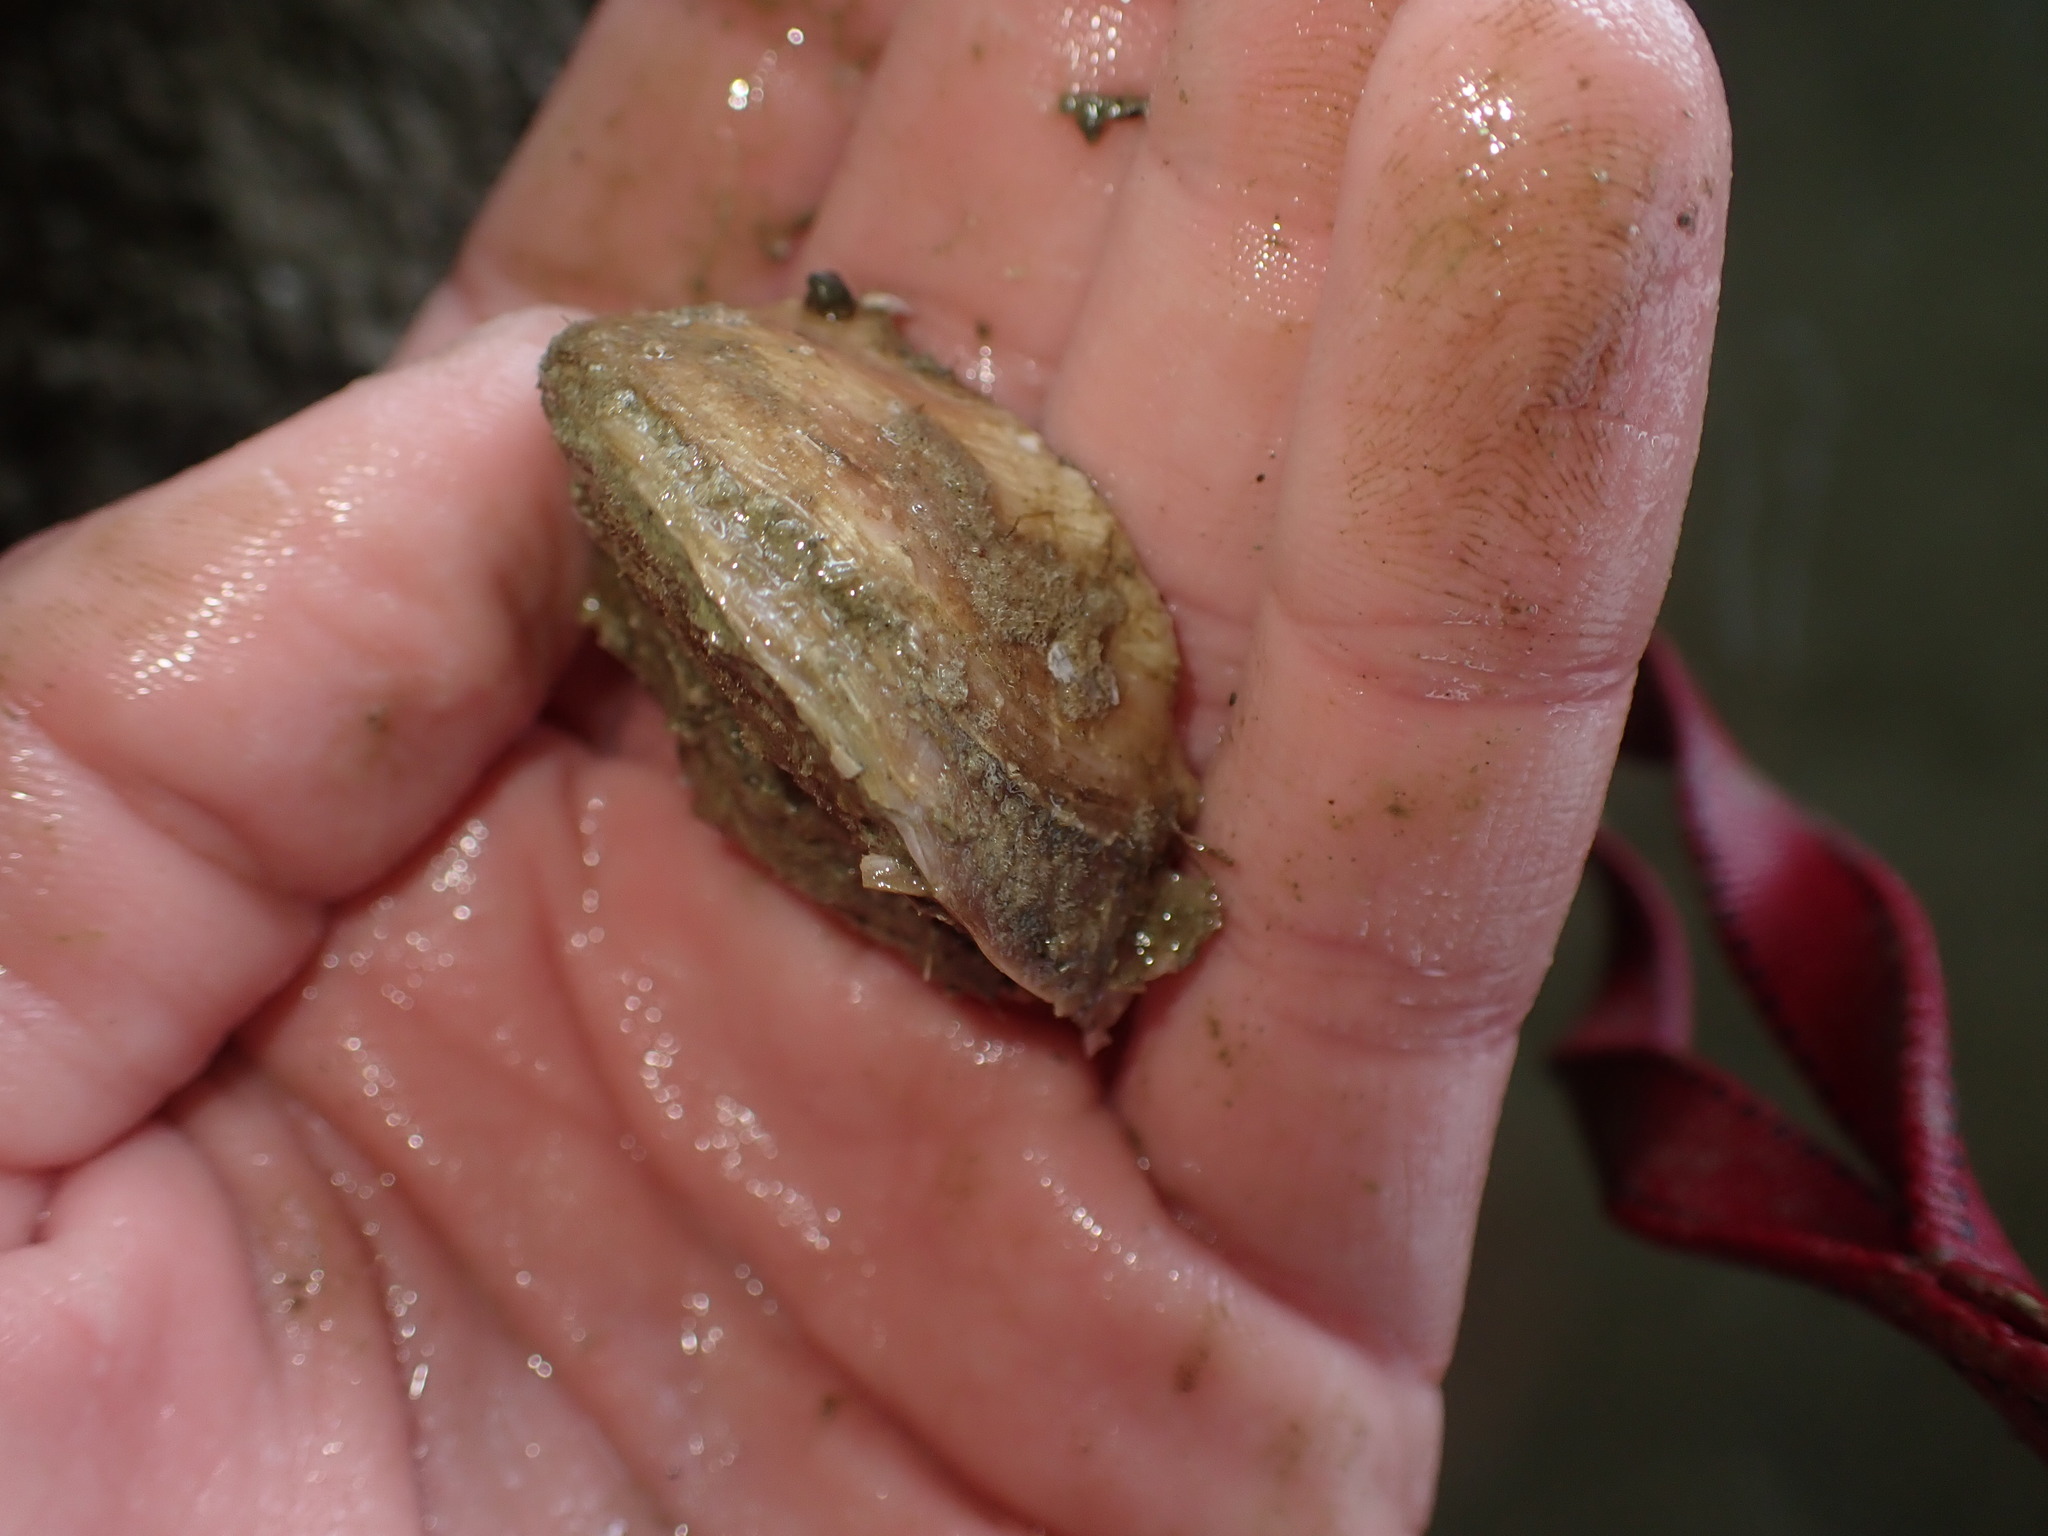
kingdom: Animalia
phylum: Mollusca
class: Bivalvia
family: Cleidothaeridae
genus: Cleidothaerus
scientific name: Cleidothaerus albidus
